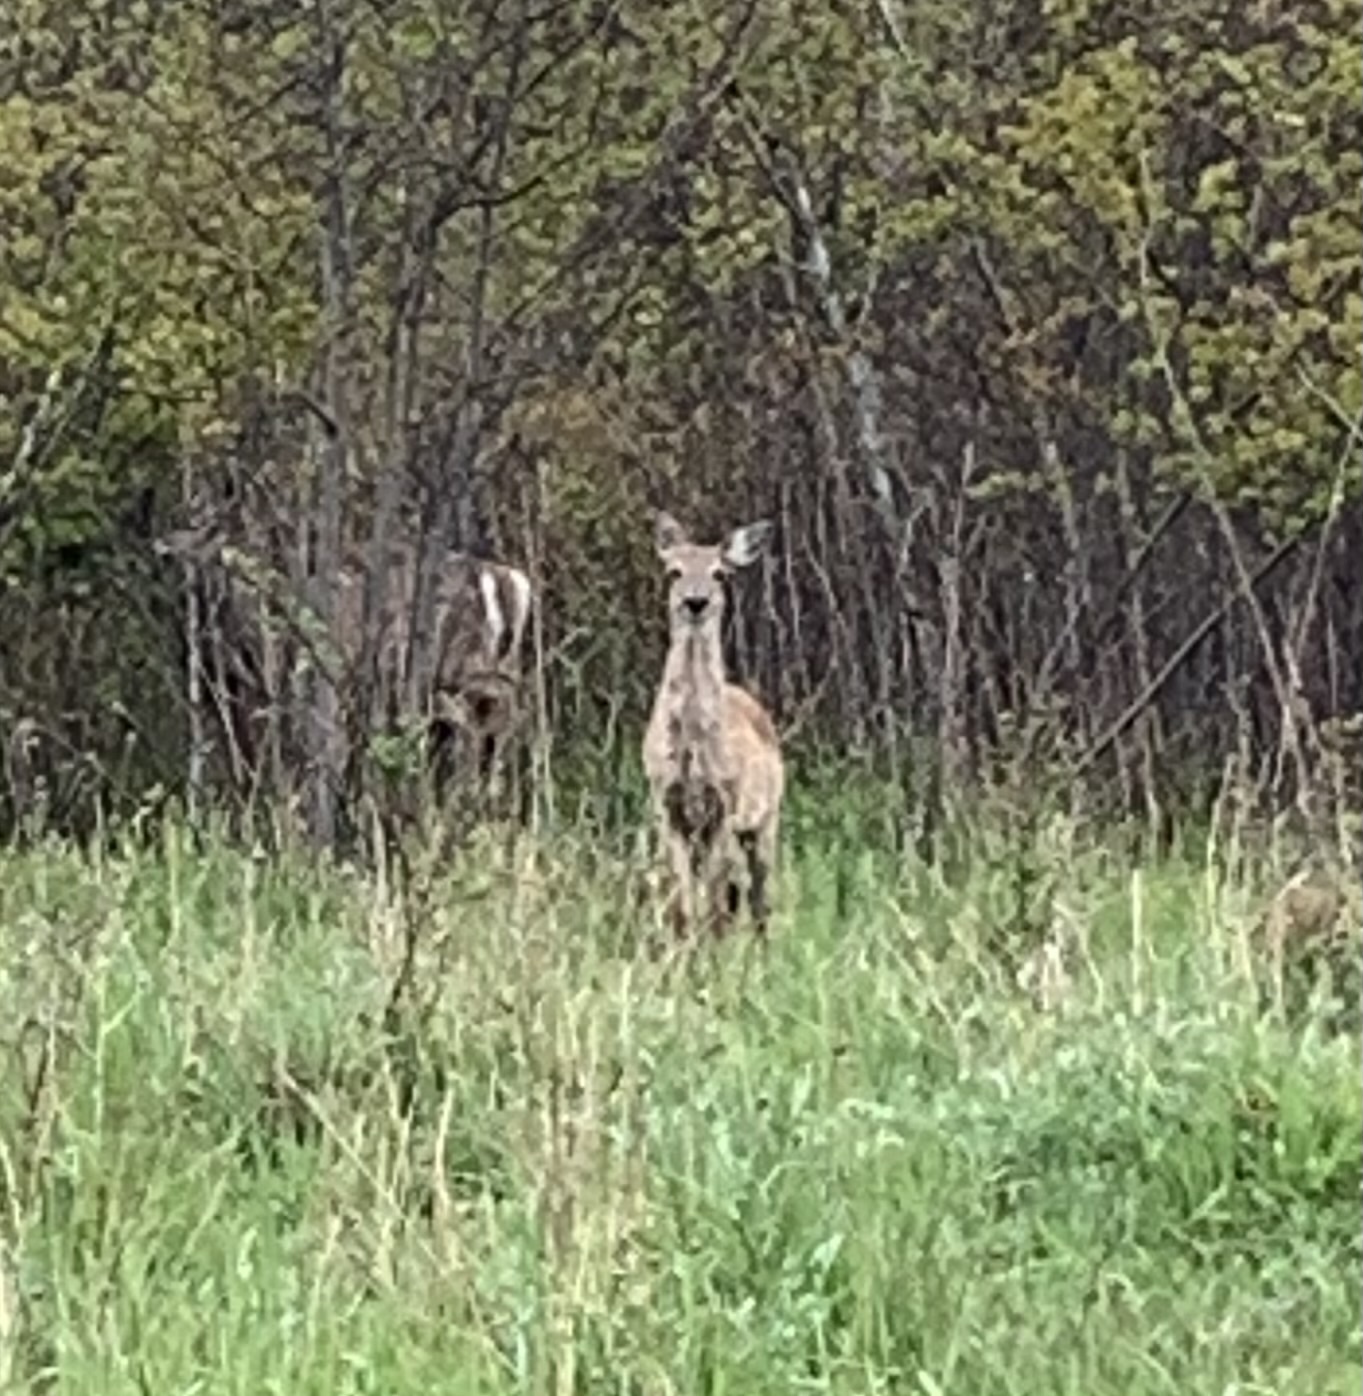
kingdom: Animalia
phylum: Chordata
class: Mammalia
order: Artiodactyla
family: Cervidae
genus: Odocoileus
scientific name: Odocoileus virginianus
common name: White-tailed deer
